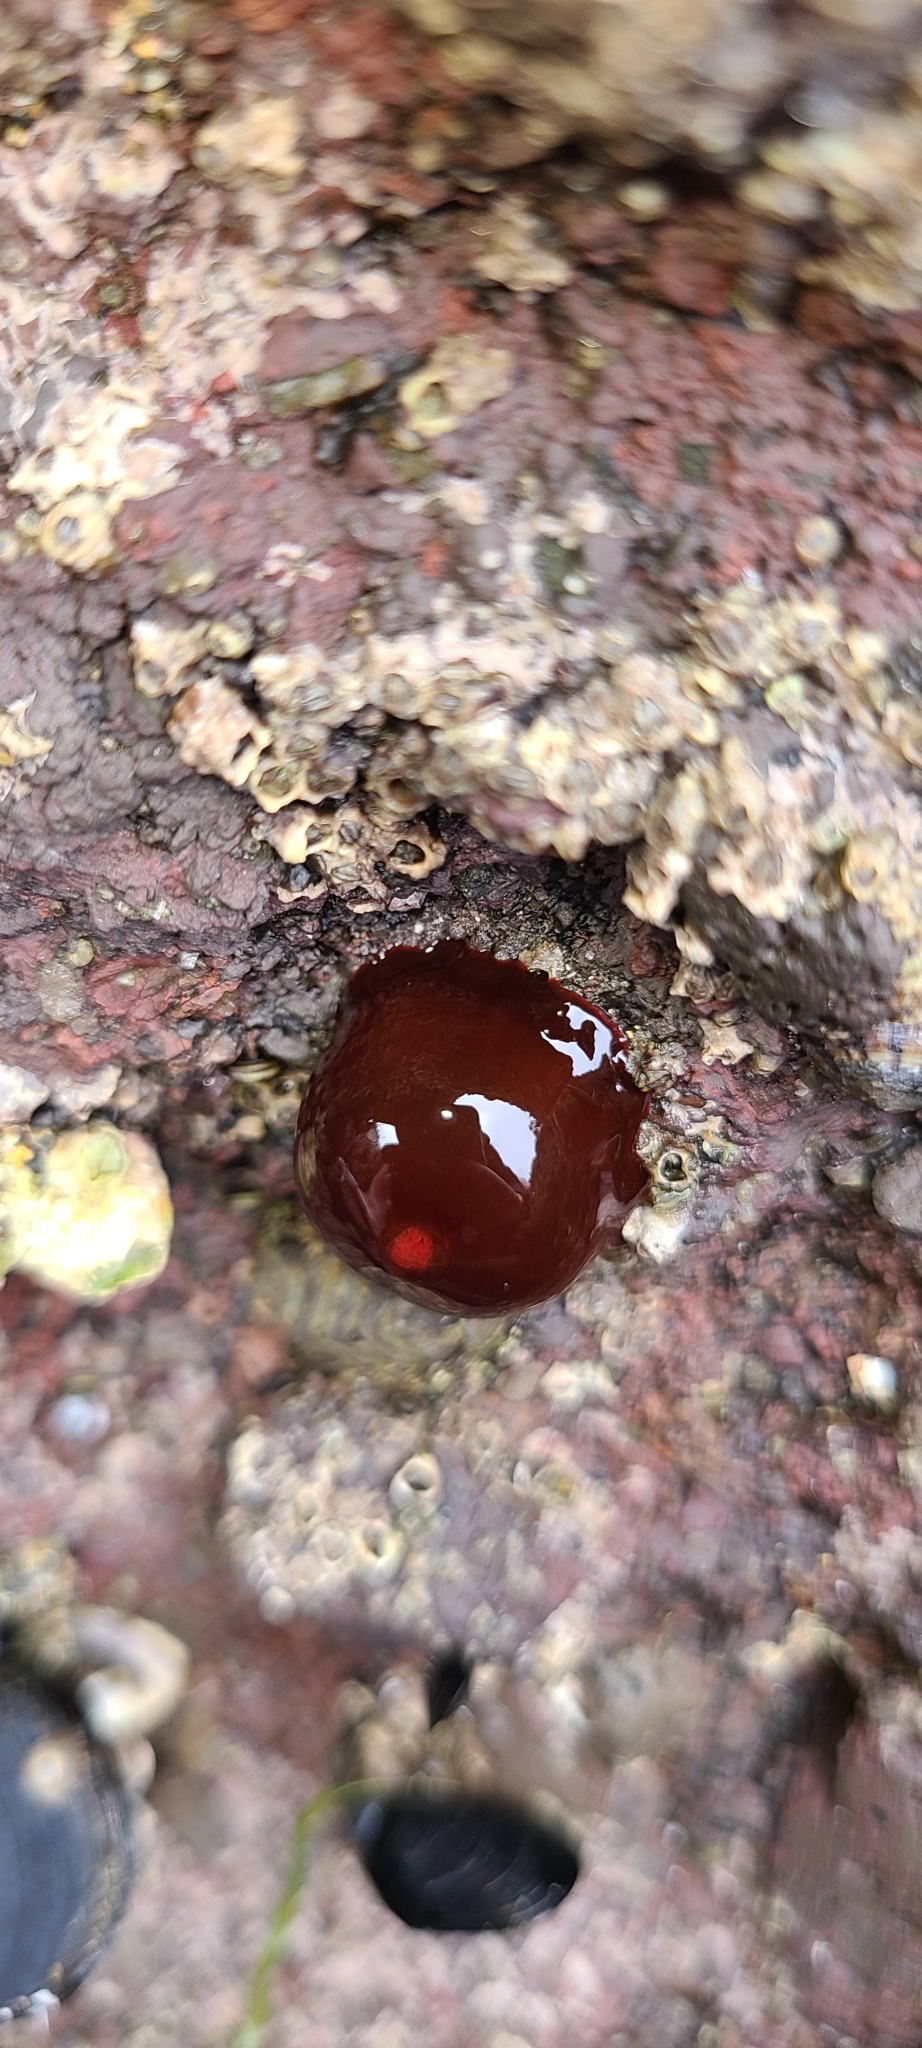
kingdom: Animalia
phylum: Cnidaria
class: Anthozoa
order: Actiniaria
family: Actiniidae
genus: Actinia
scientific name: Actinia tenebrosa
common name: Waratah anemone
